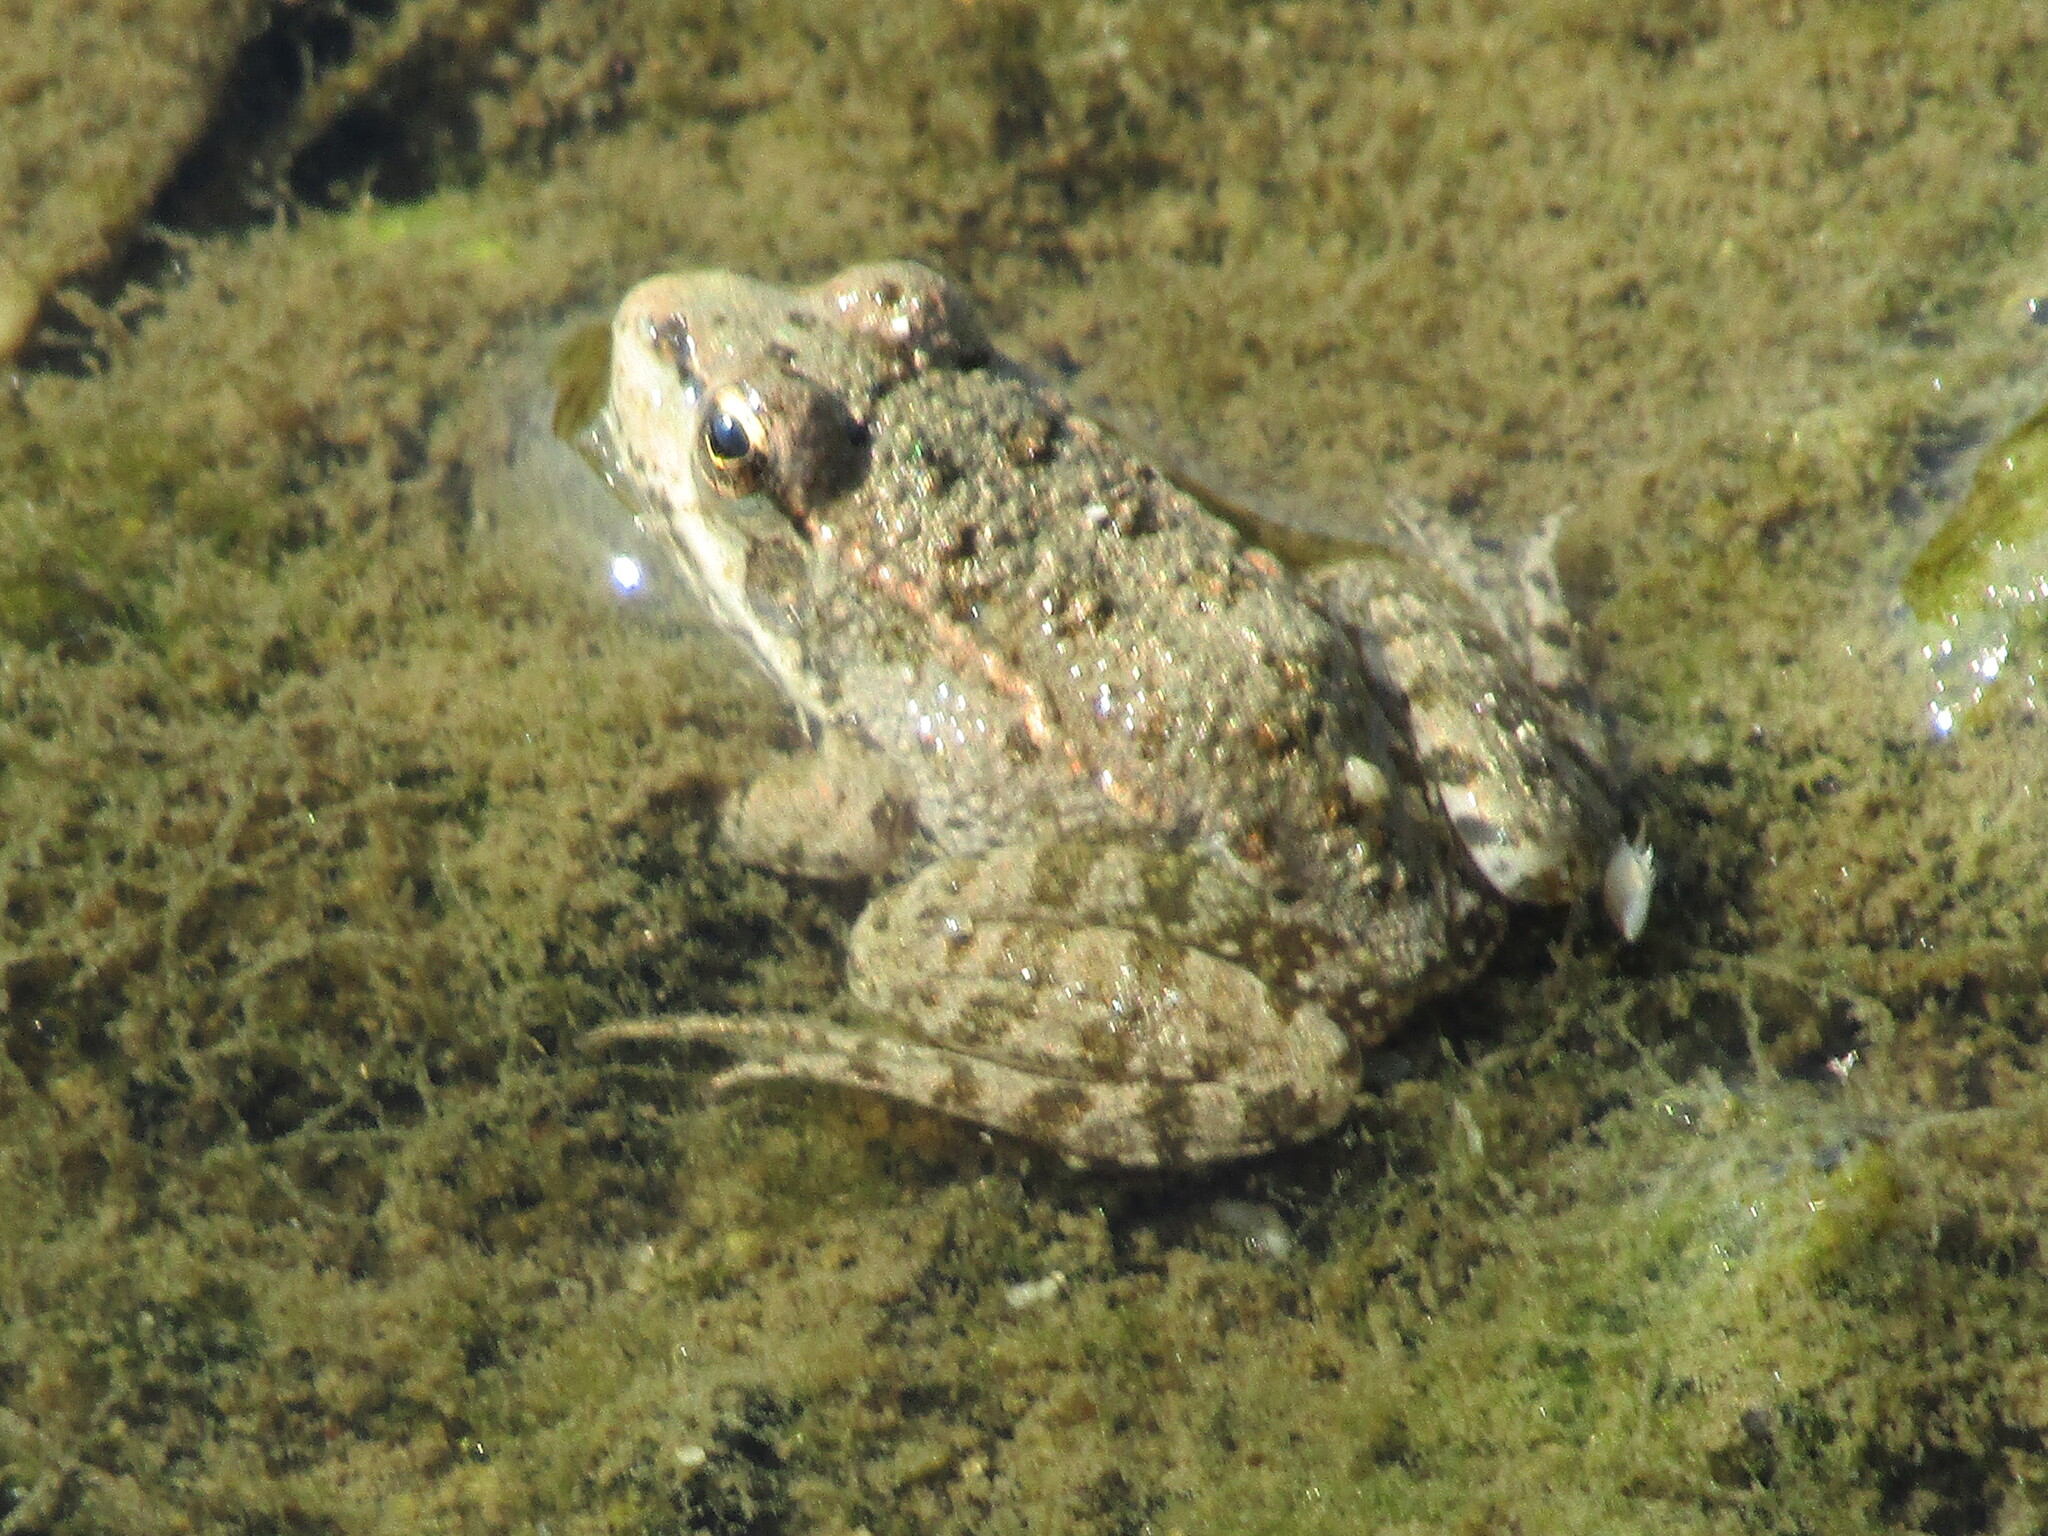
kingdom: Animalia
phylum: Chordata
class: Amphibia
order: Anura
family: Ranidae
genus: Pelophylax
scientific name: Pelophylax ridibundus
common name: Marsh frog
